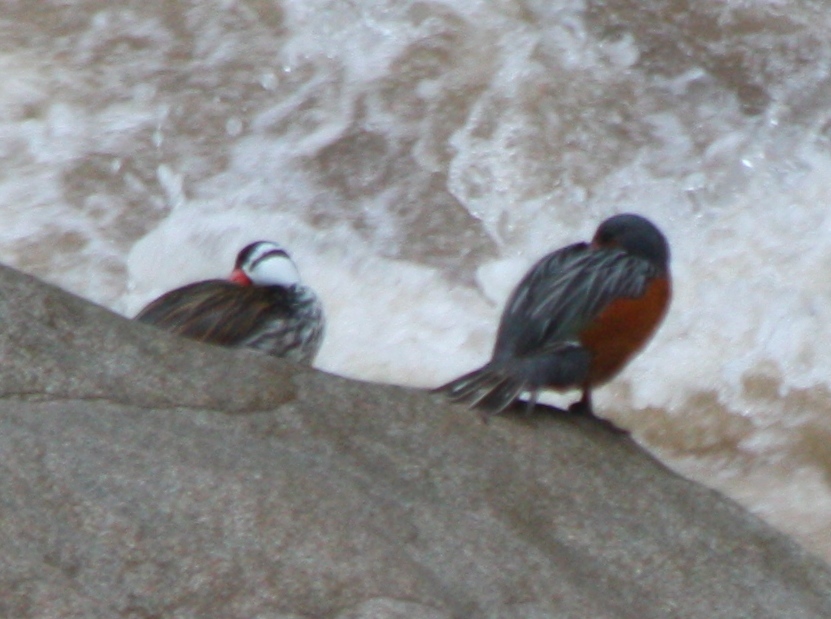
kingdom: Animalia
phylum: Chordata
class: Aves
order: Anseriformes
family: Anatidae
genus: Merganetta
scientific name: Merganetta armata
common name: Torrent duck
